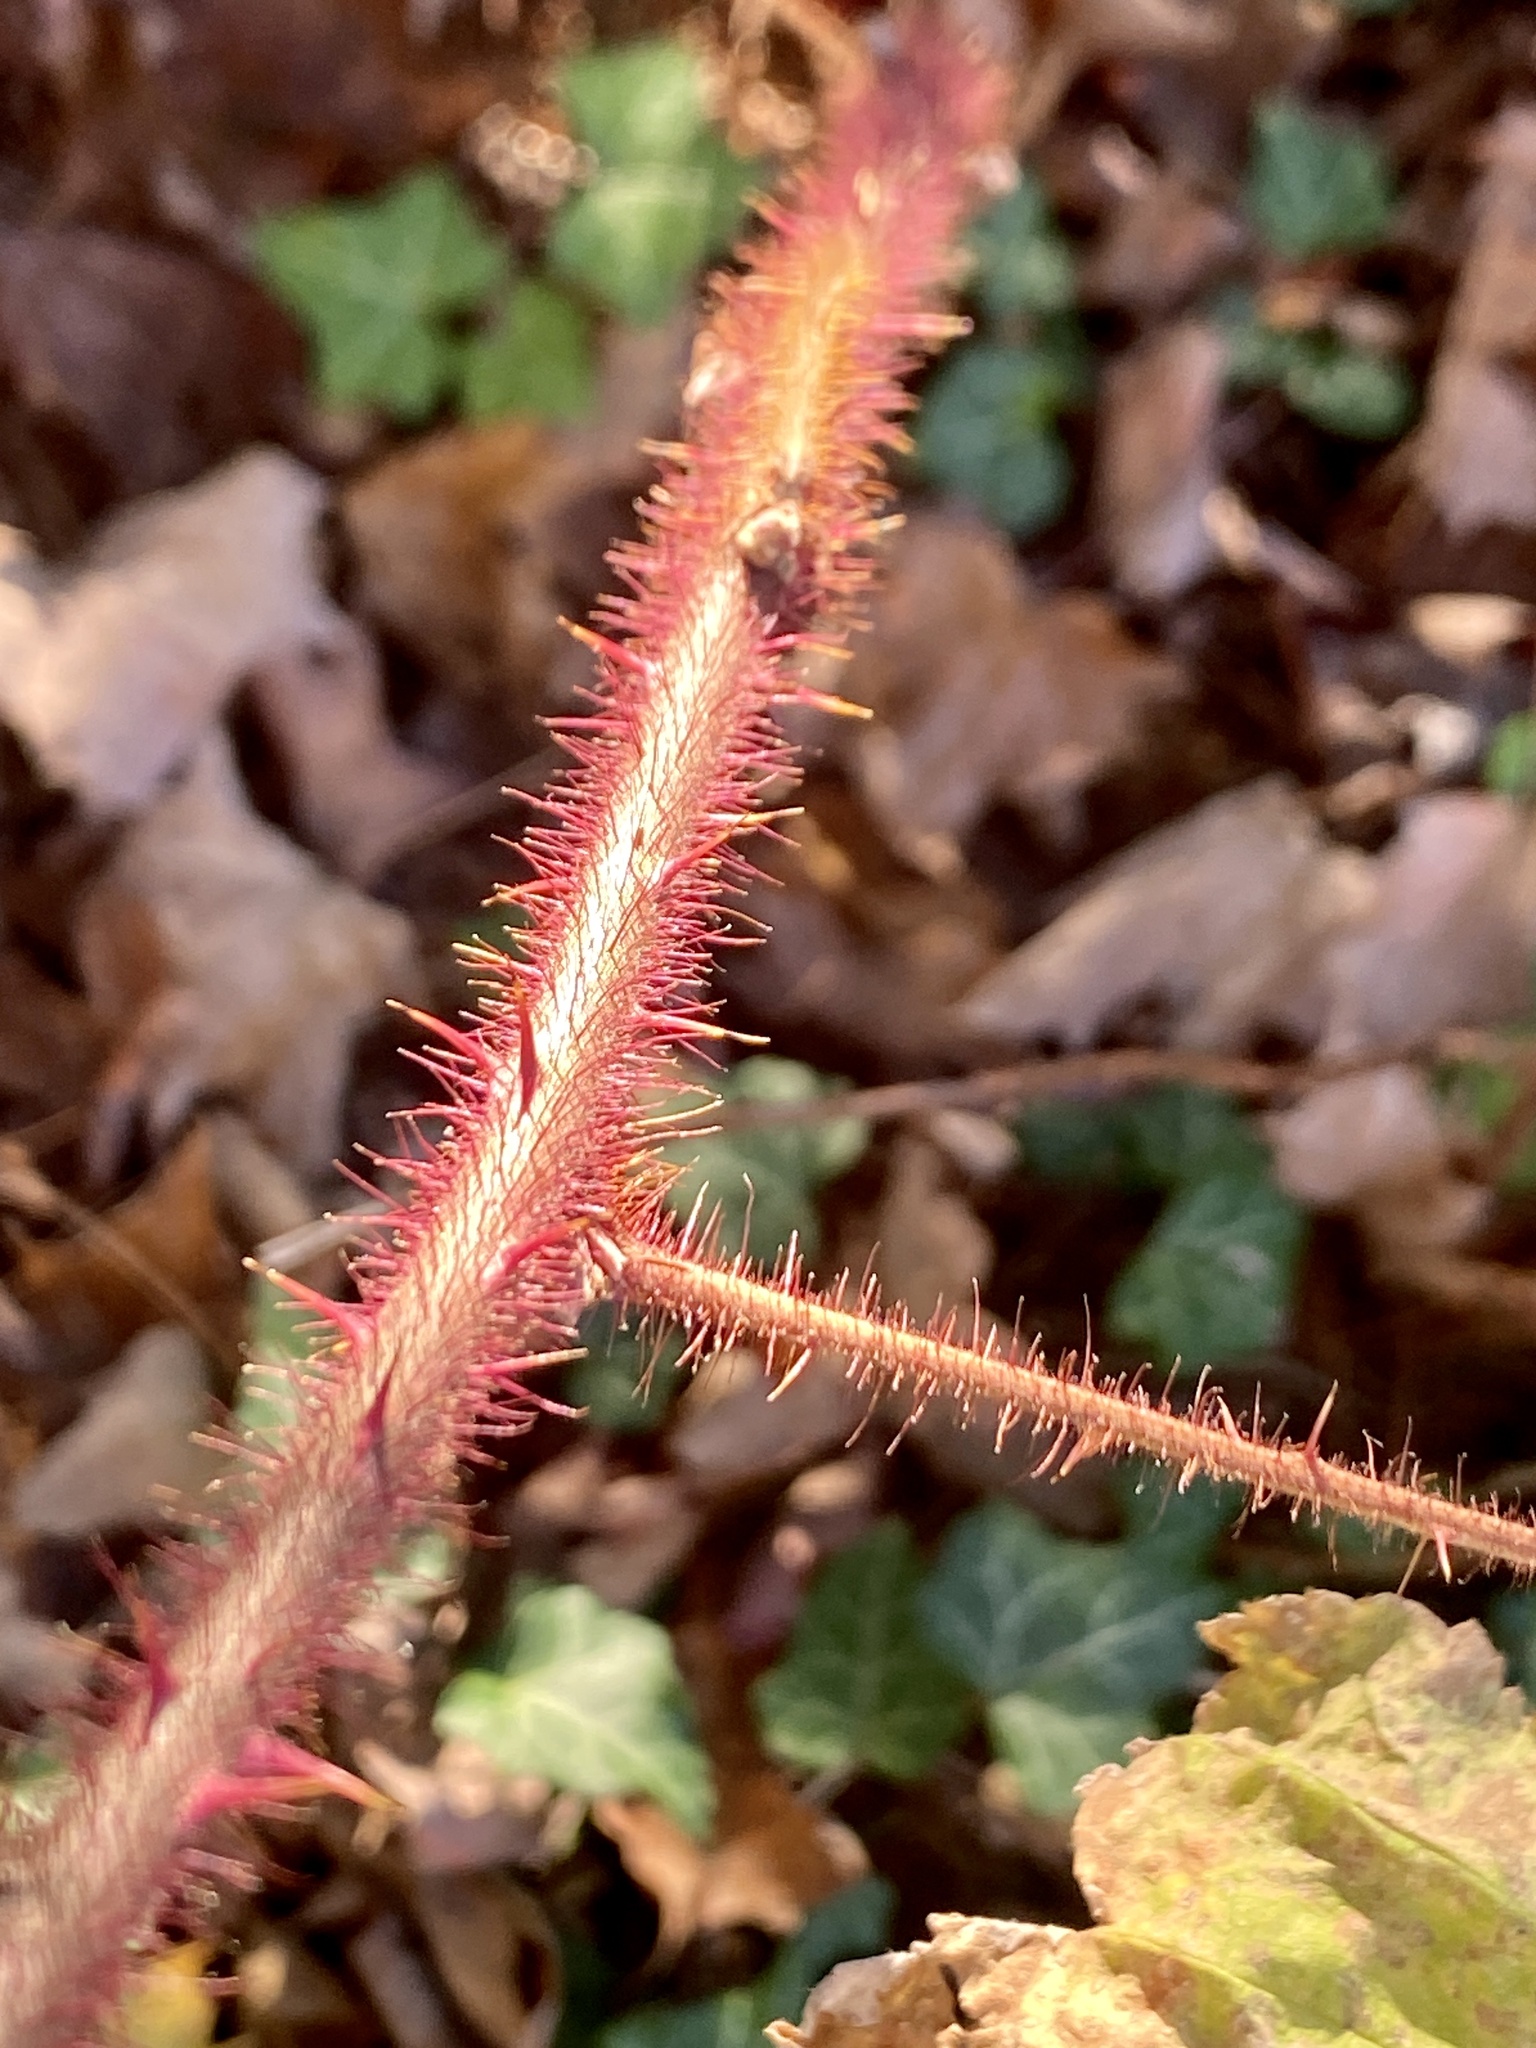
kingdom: Plantae
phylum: Tracheophyta
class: Magnoliopsida
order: Rosales
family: Rosaceae
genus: Rubus
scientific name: Rubus phoenicolasius
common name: Japanese wineberry
